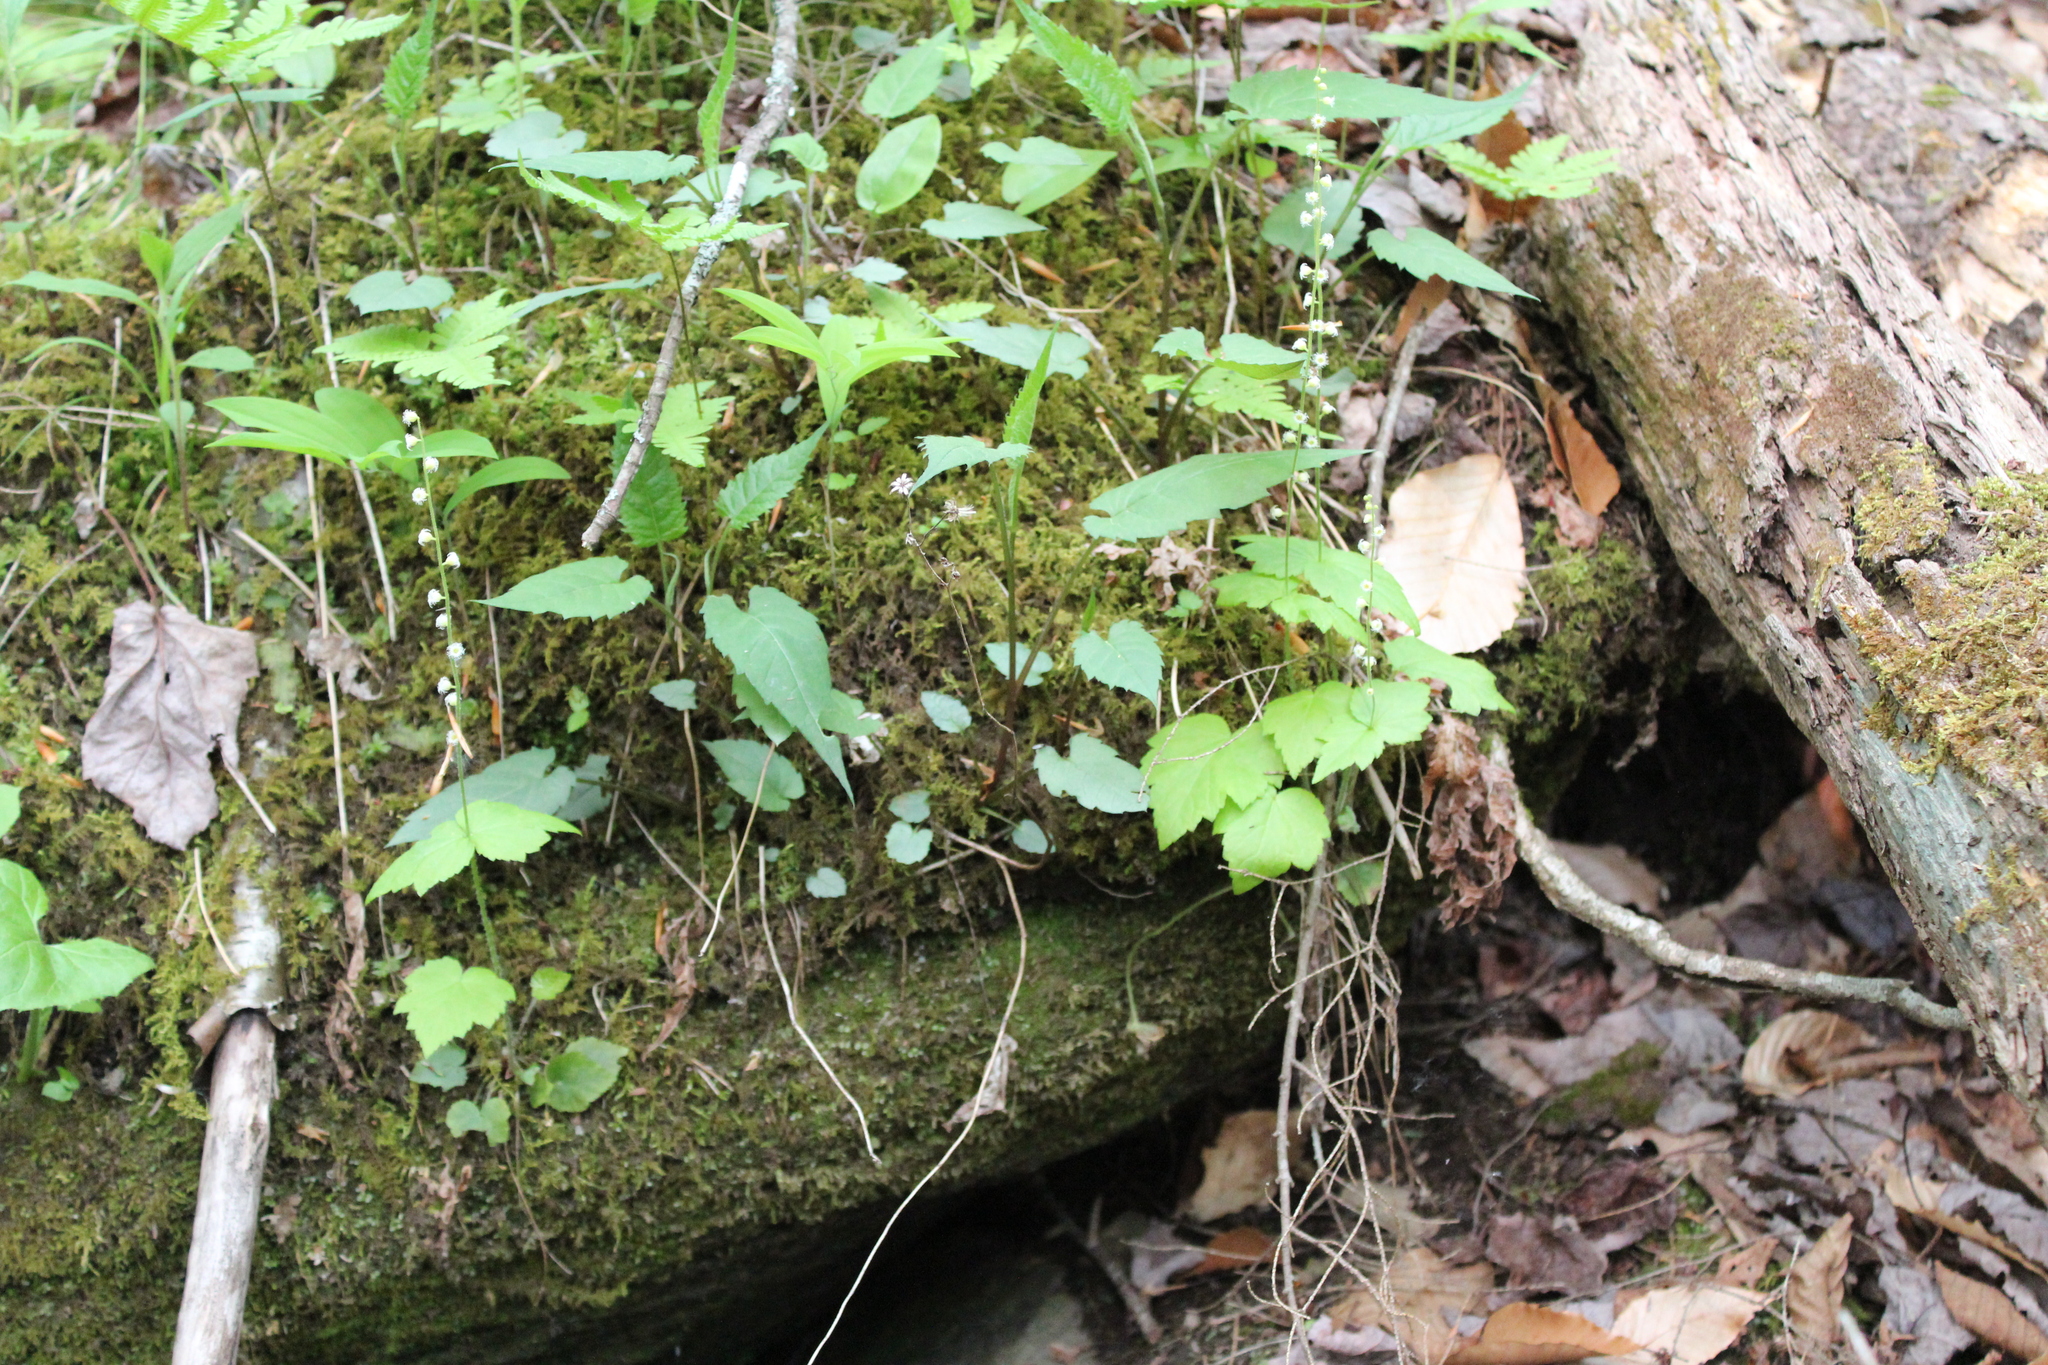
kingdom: Plantae
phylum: Tracheophyta
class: Magnoliopsida
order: Saxifragales
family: Saxifragaceae
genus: Mitella
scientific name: Mitella diphylla
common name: Coolwort
